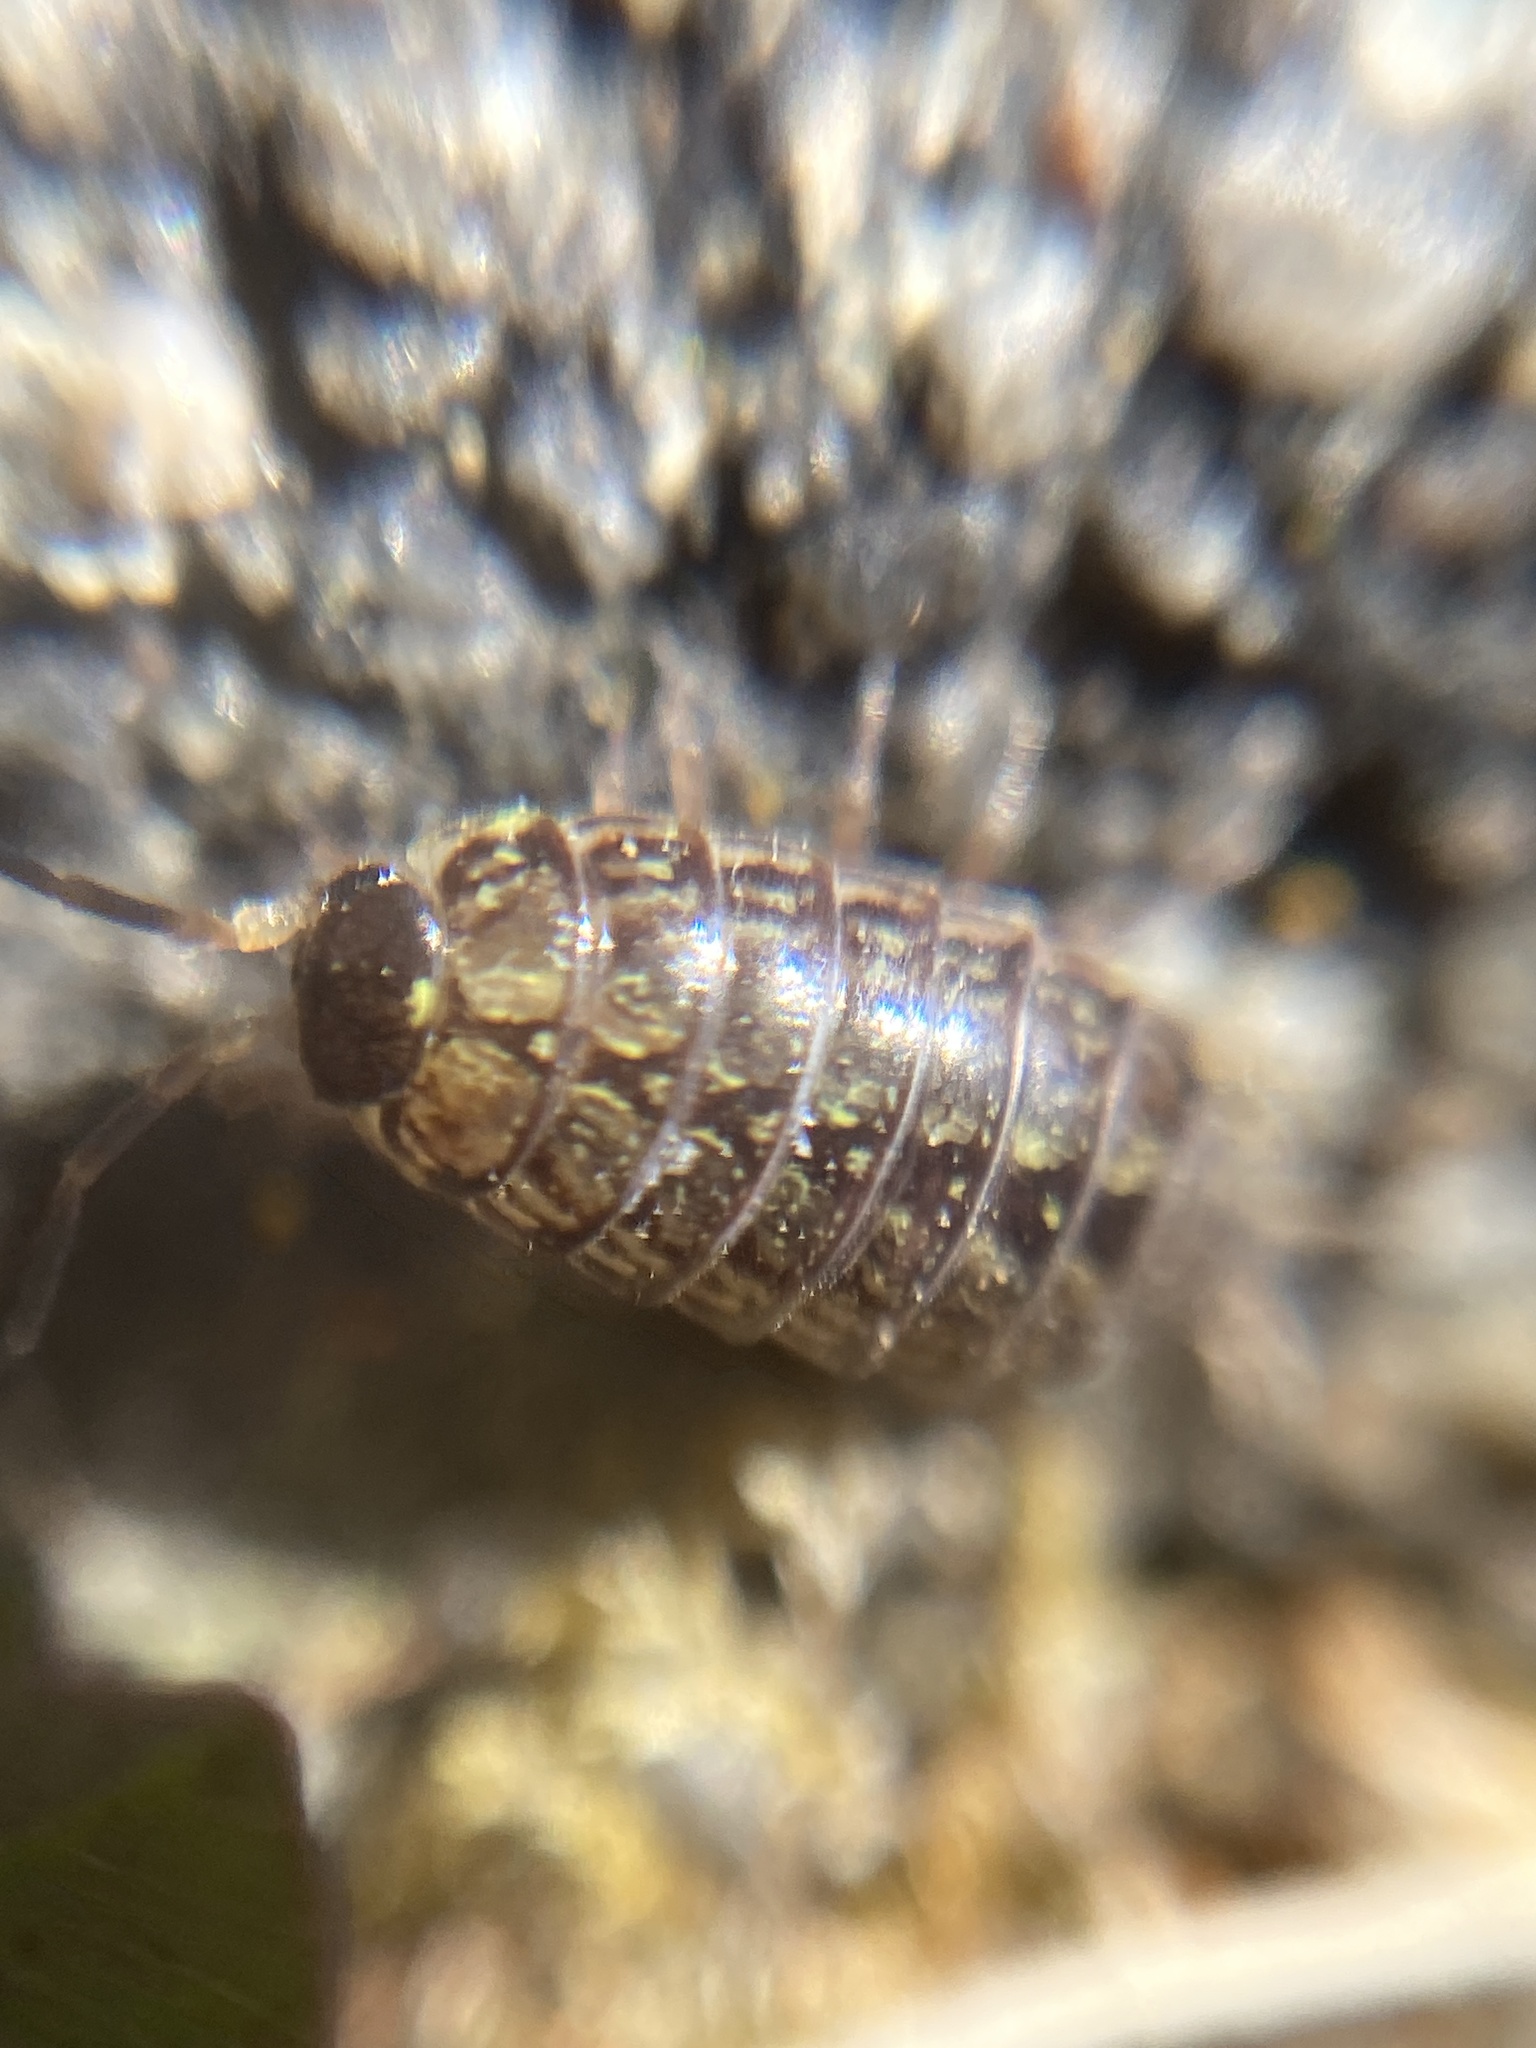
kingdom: Animalia
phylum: Arthropoda
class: Malacostraca
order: Isopoda
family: Philosciidae
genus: Philoscia
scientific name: Philoscia muscorum
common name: Common striped woodlouse
